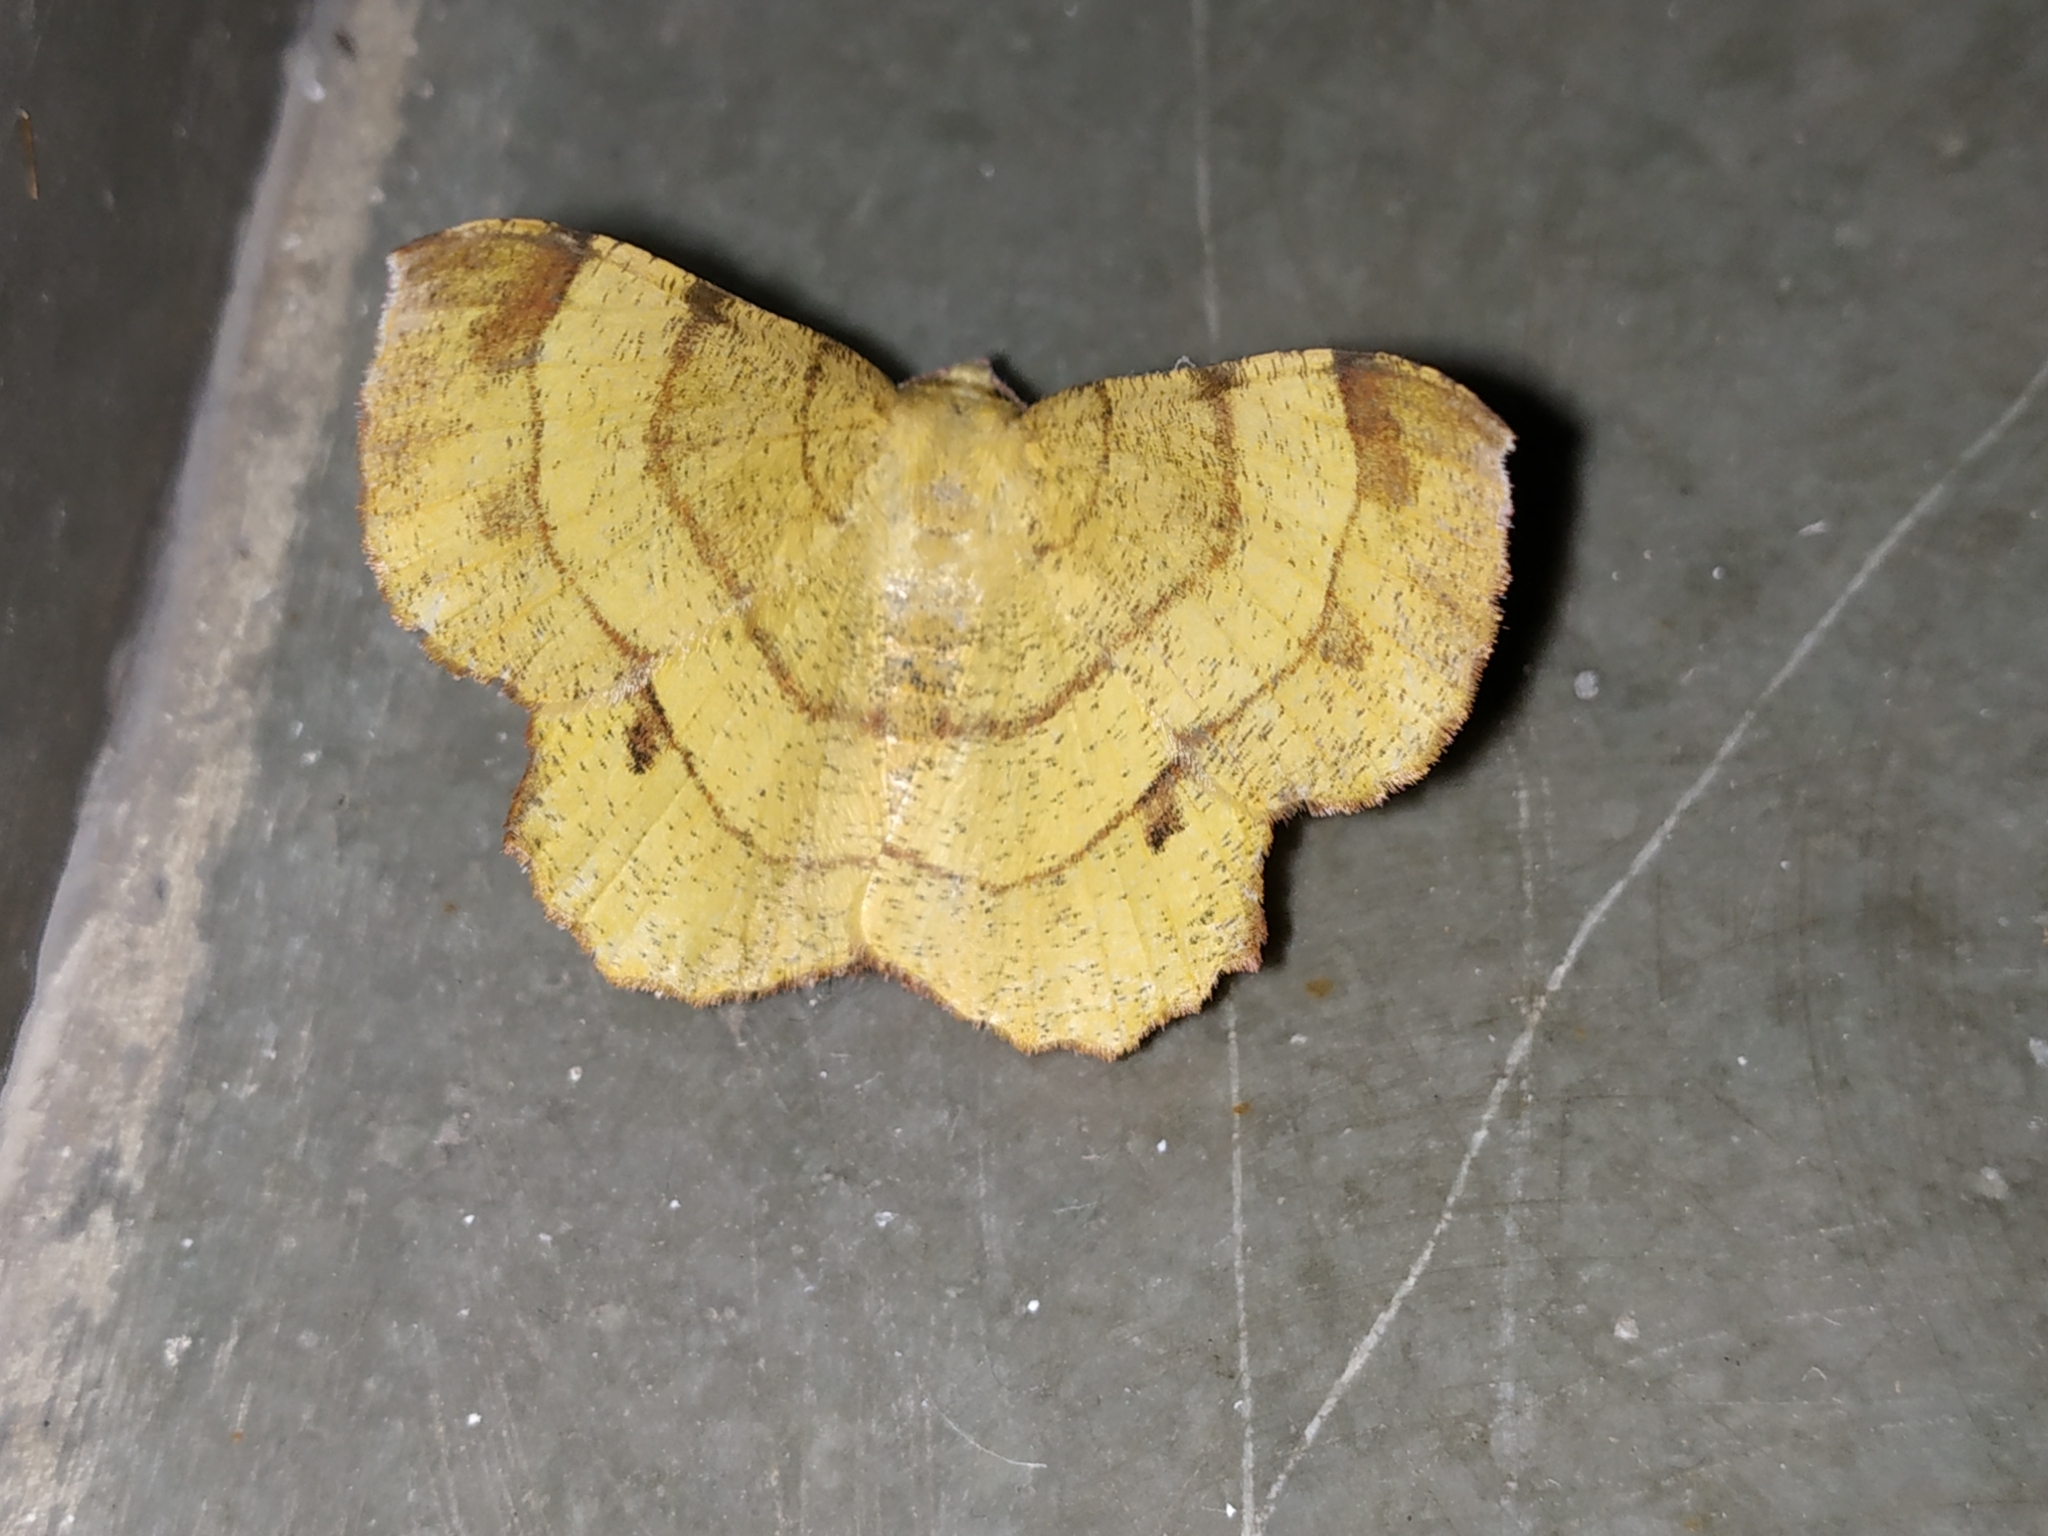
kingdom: Animalia
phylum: Arthropoda
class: Insecta
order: Lepidoptera
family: Geometridae
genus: Hyperythra
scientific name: Hyperythra lutea
